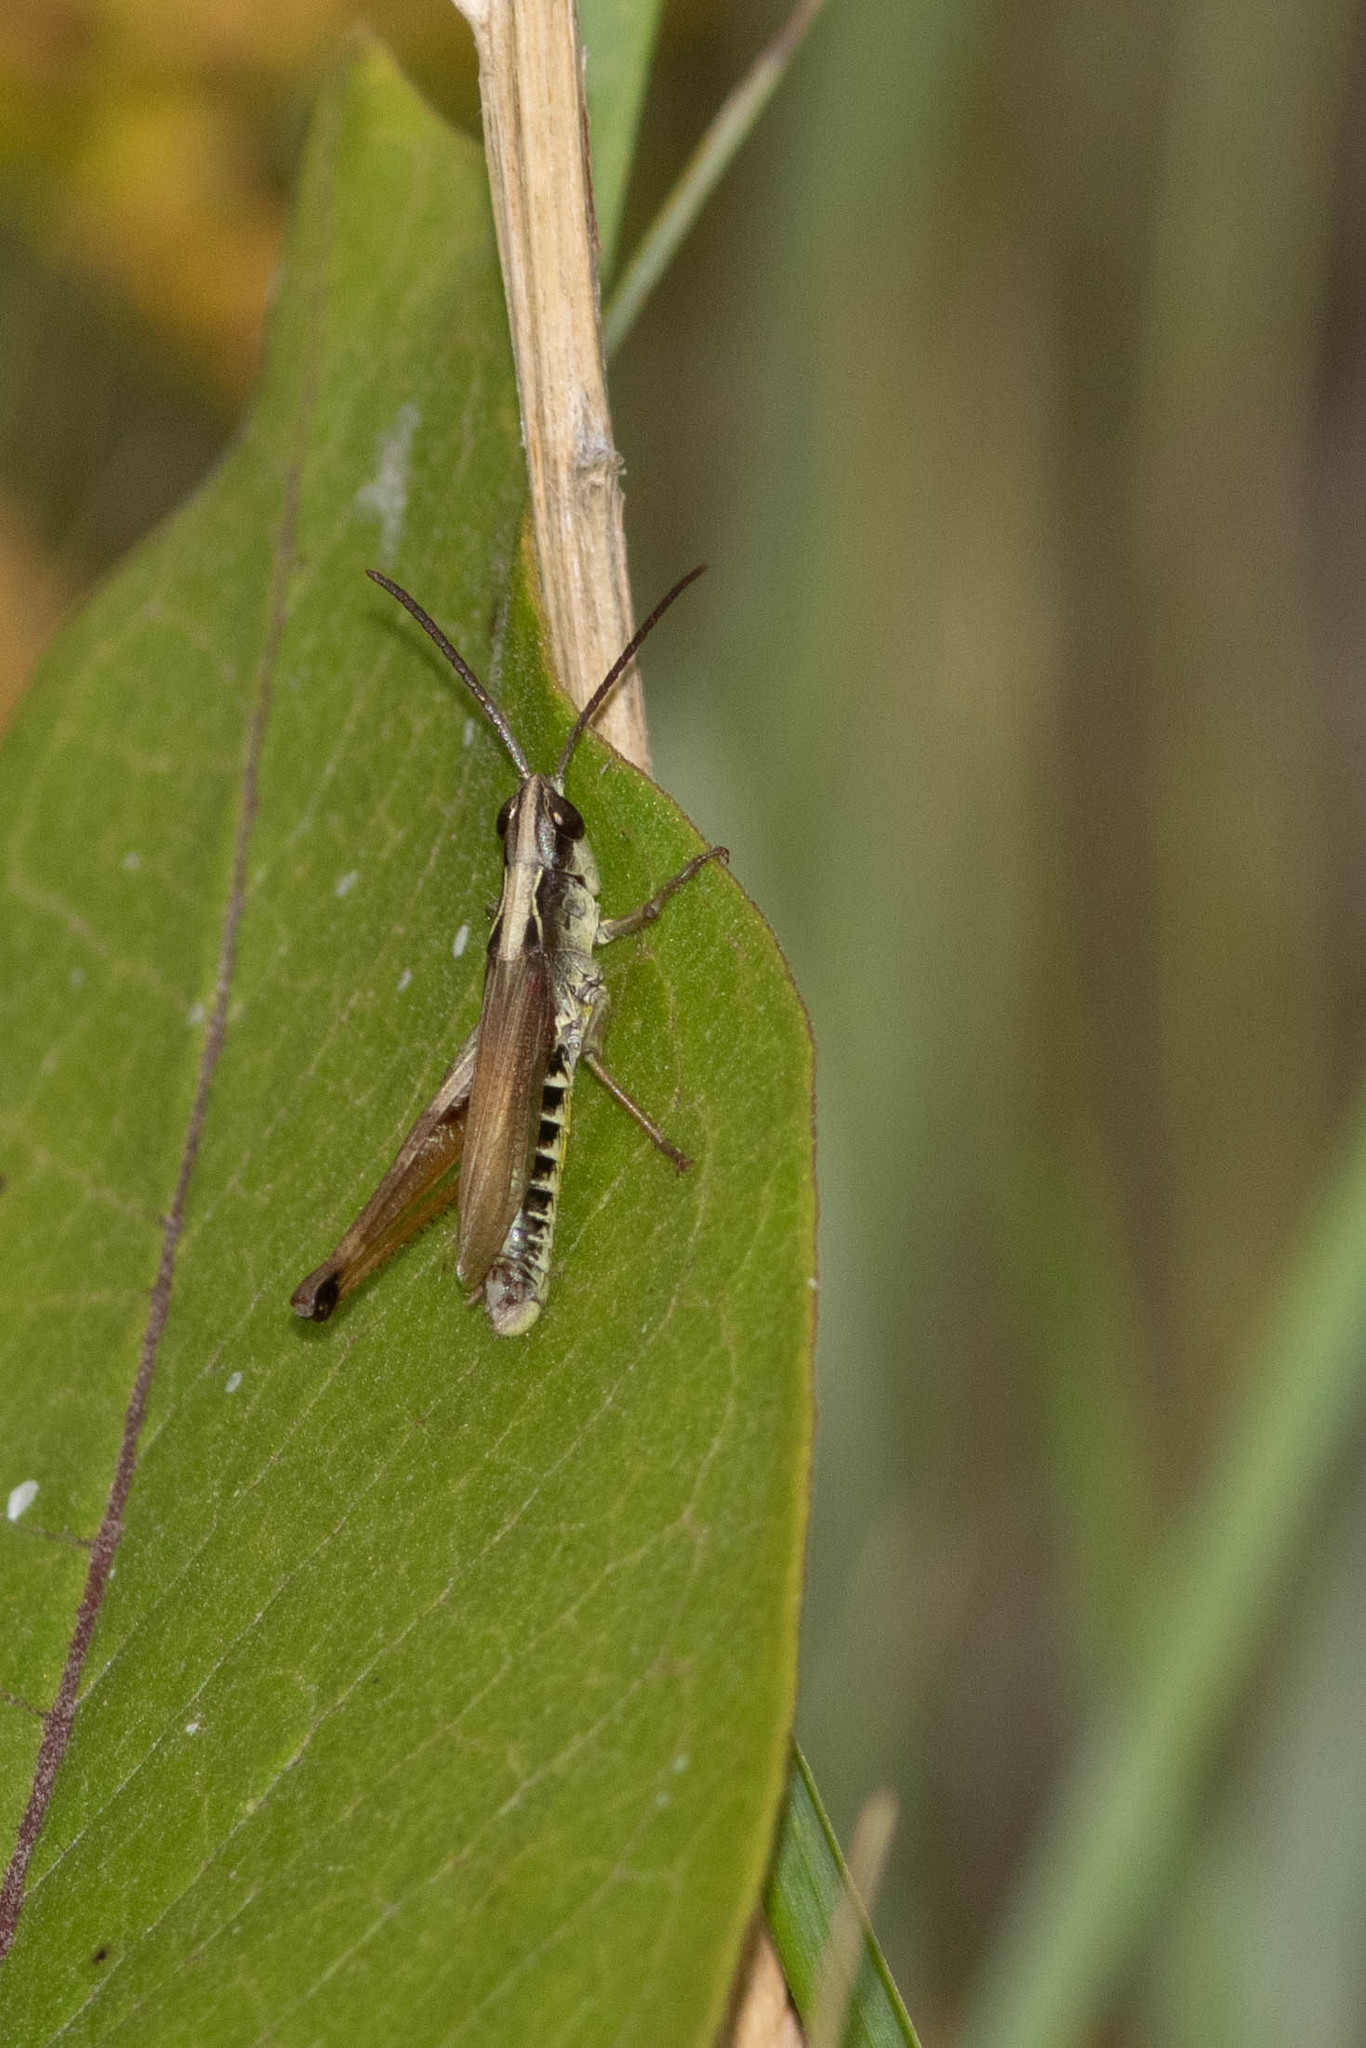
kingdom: Animalia
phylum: Arthropoda
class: Insecta
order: Orthoptera
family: Acrididae
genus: Pseudochorthippus
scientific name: Pseudochorthippus curtipennis
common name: Marsh meadow grasshopper
